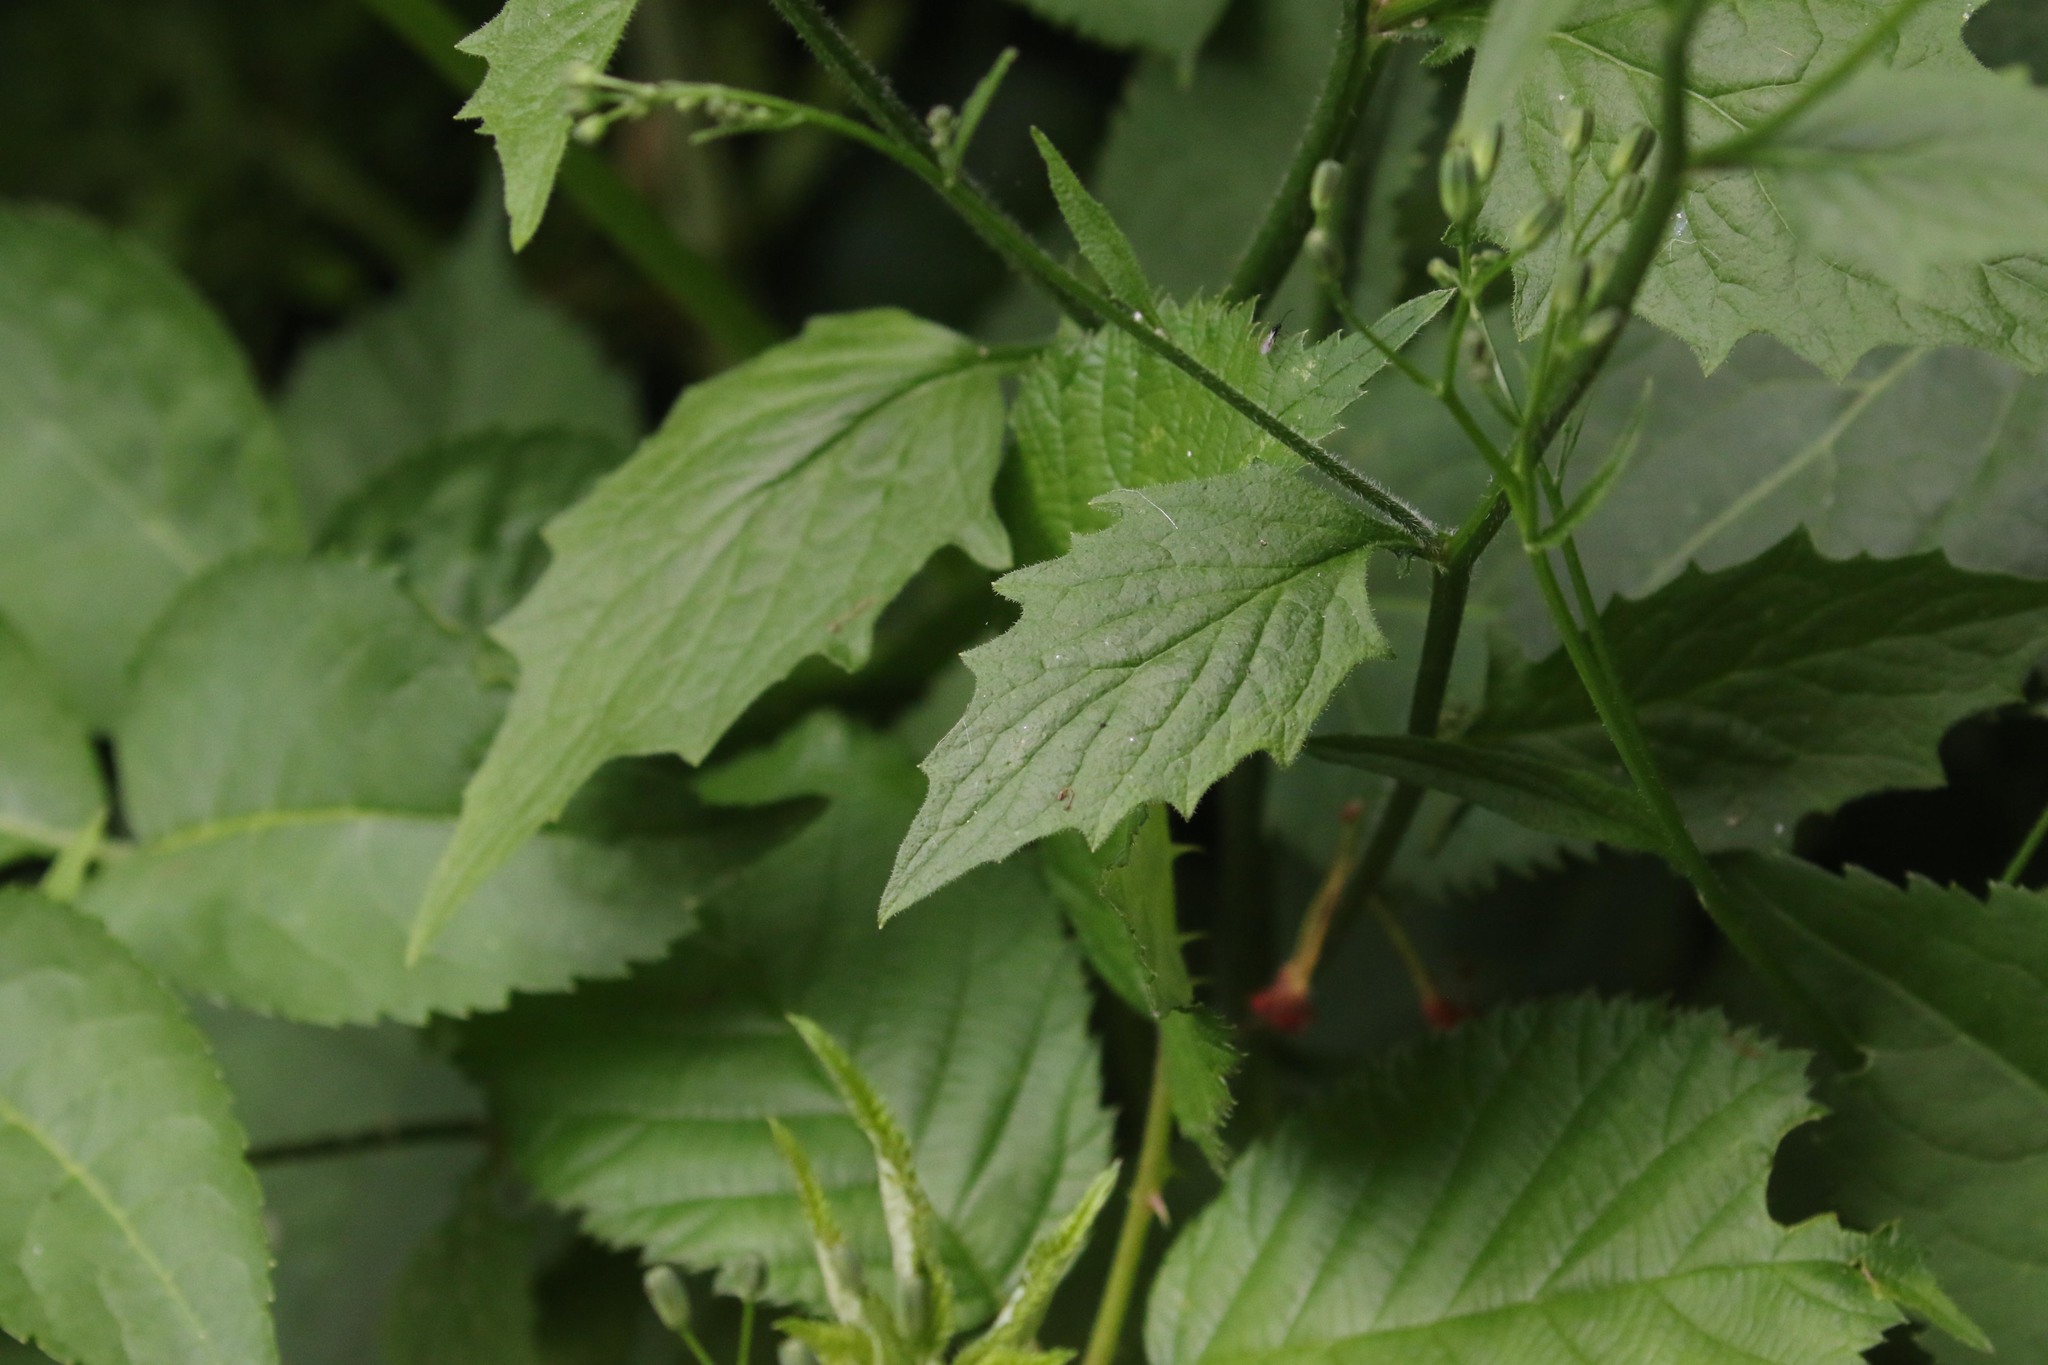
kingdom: Plantae
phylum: Tracheophyta
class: Magnoliopsida
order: Asterales
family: Asteraceae
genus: Lapsana
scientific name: Lapsana communis
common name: Nipplewort
